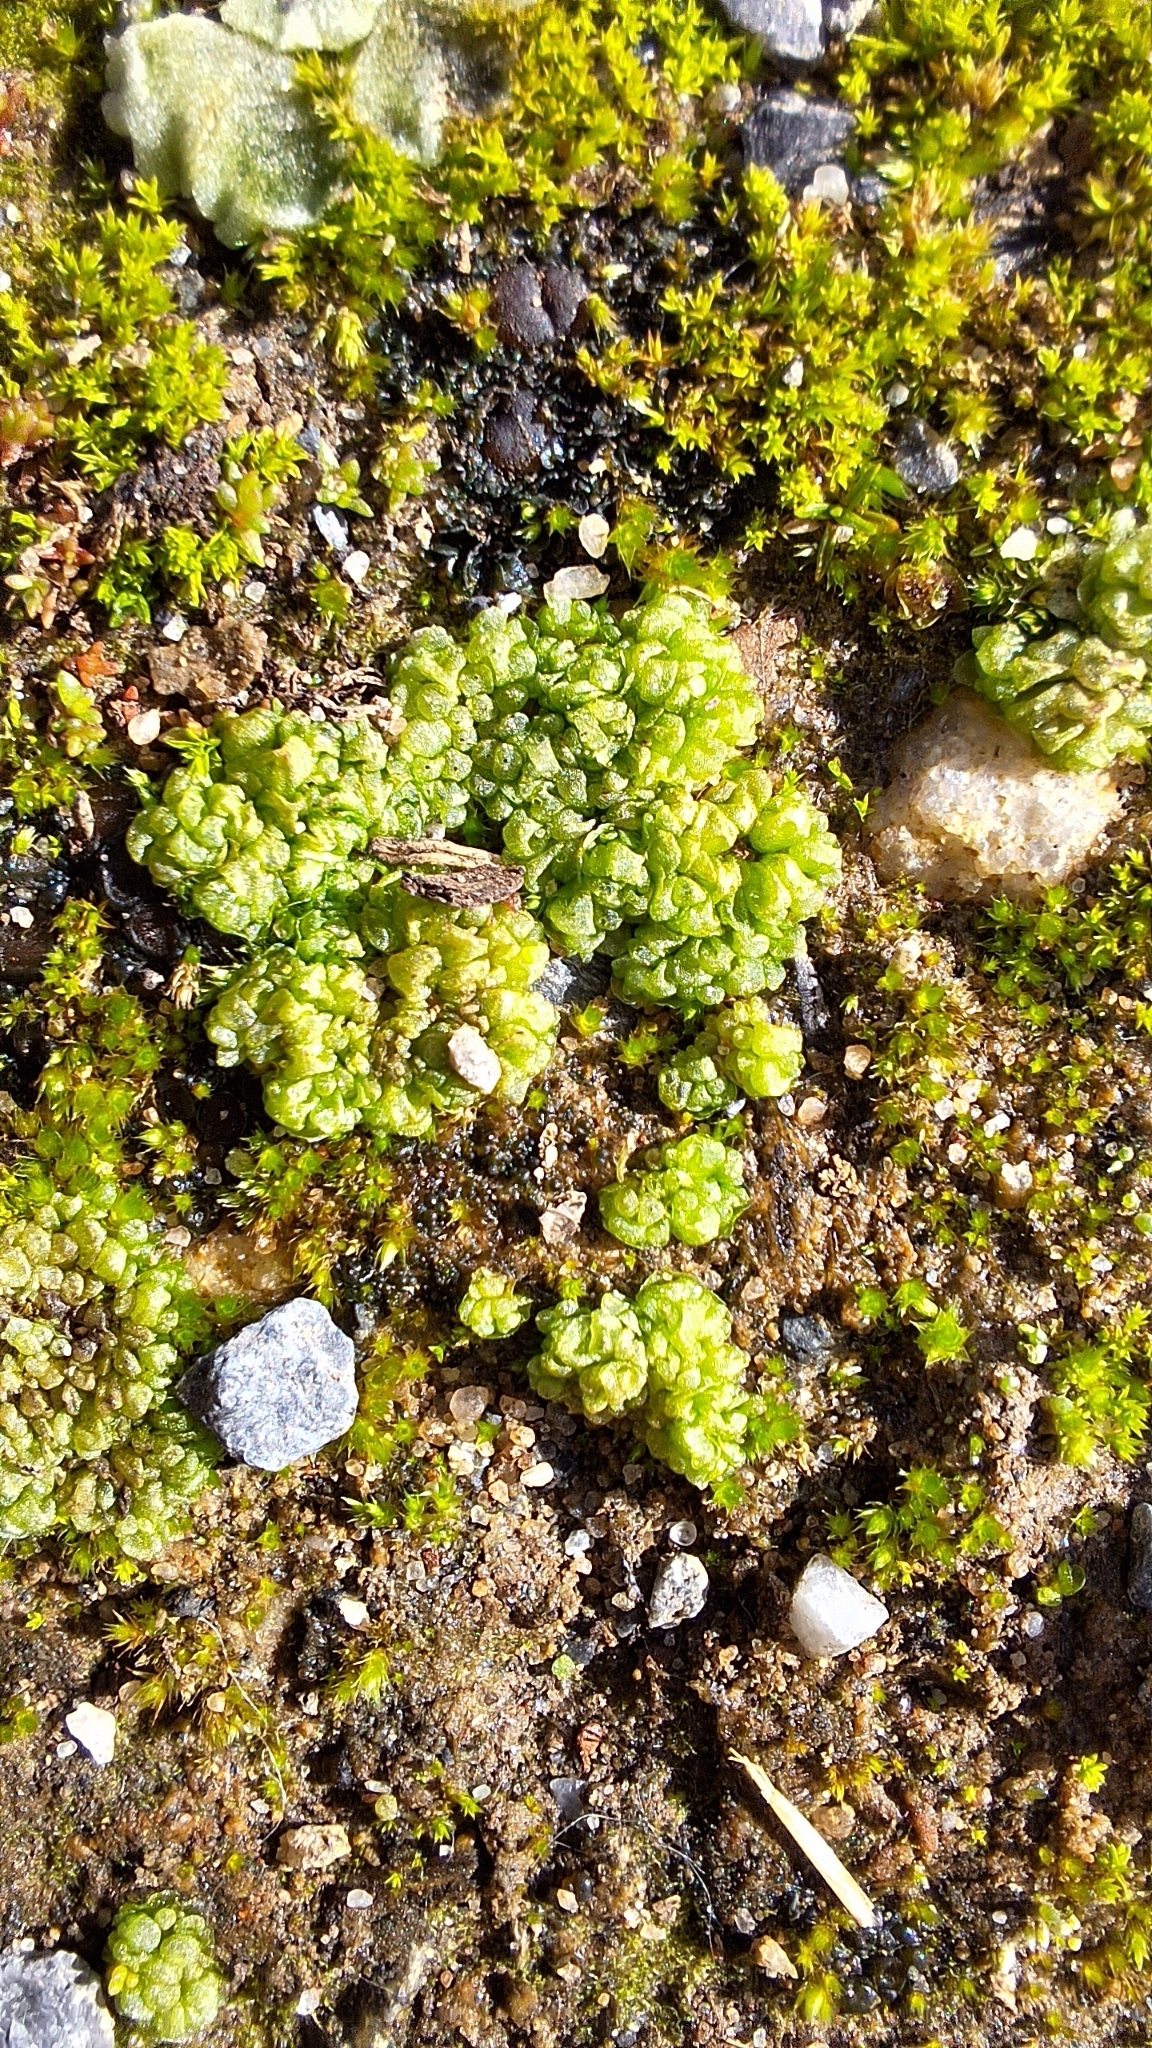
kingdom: Plantae
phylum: Marchantiophyta
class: Marchantiopsida
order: Sphaerocarpales
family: Sphaerocarpaceae
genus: Sphaerocarpos
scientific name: Sphaerocarpos texanus
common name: Texas balloonwort
